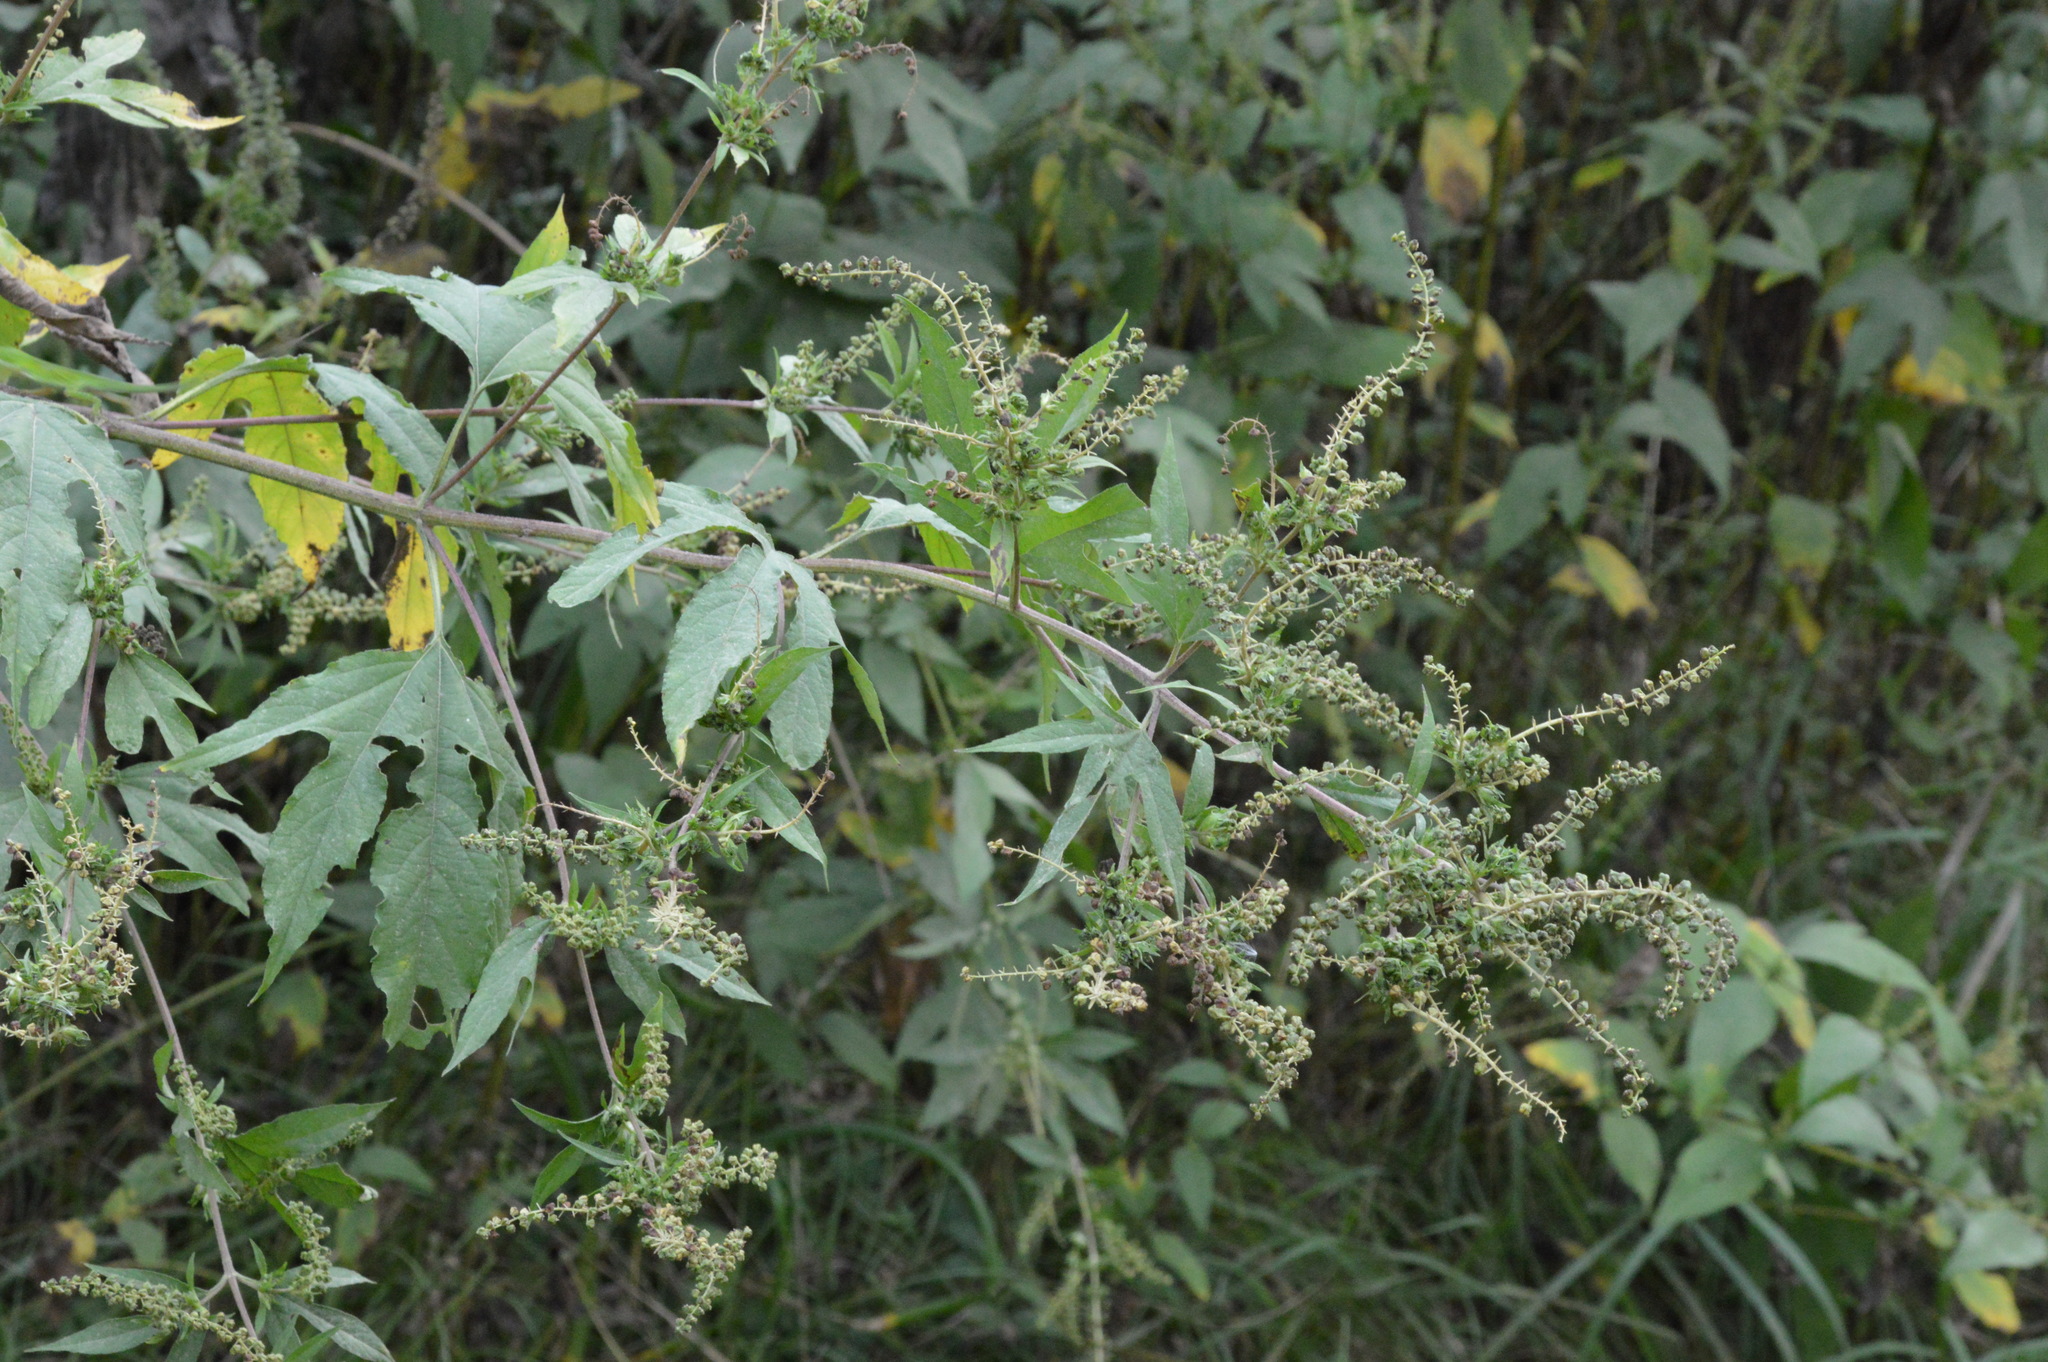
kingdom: Plantae
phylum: Tracheophyta
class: Magnoliopsida
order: Asterales
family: Asteraceae
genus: Ambrosia
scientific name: Ambrosia trifida
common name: Giant ragweed
